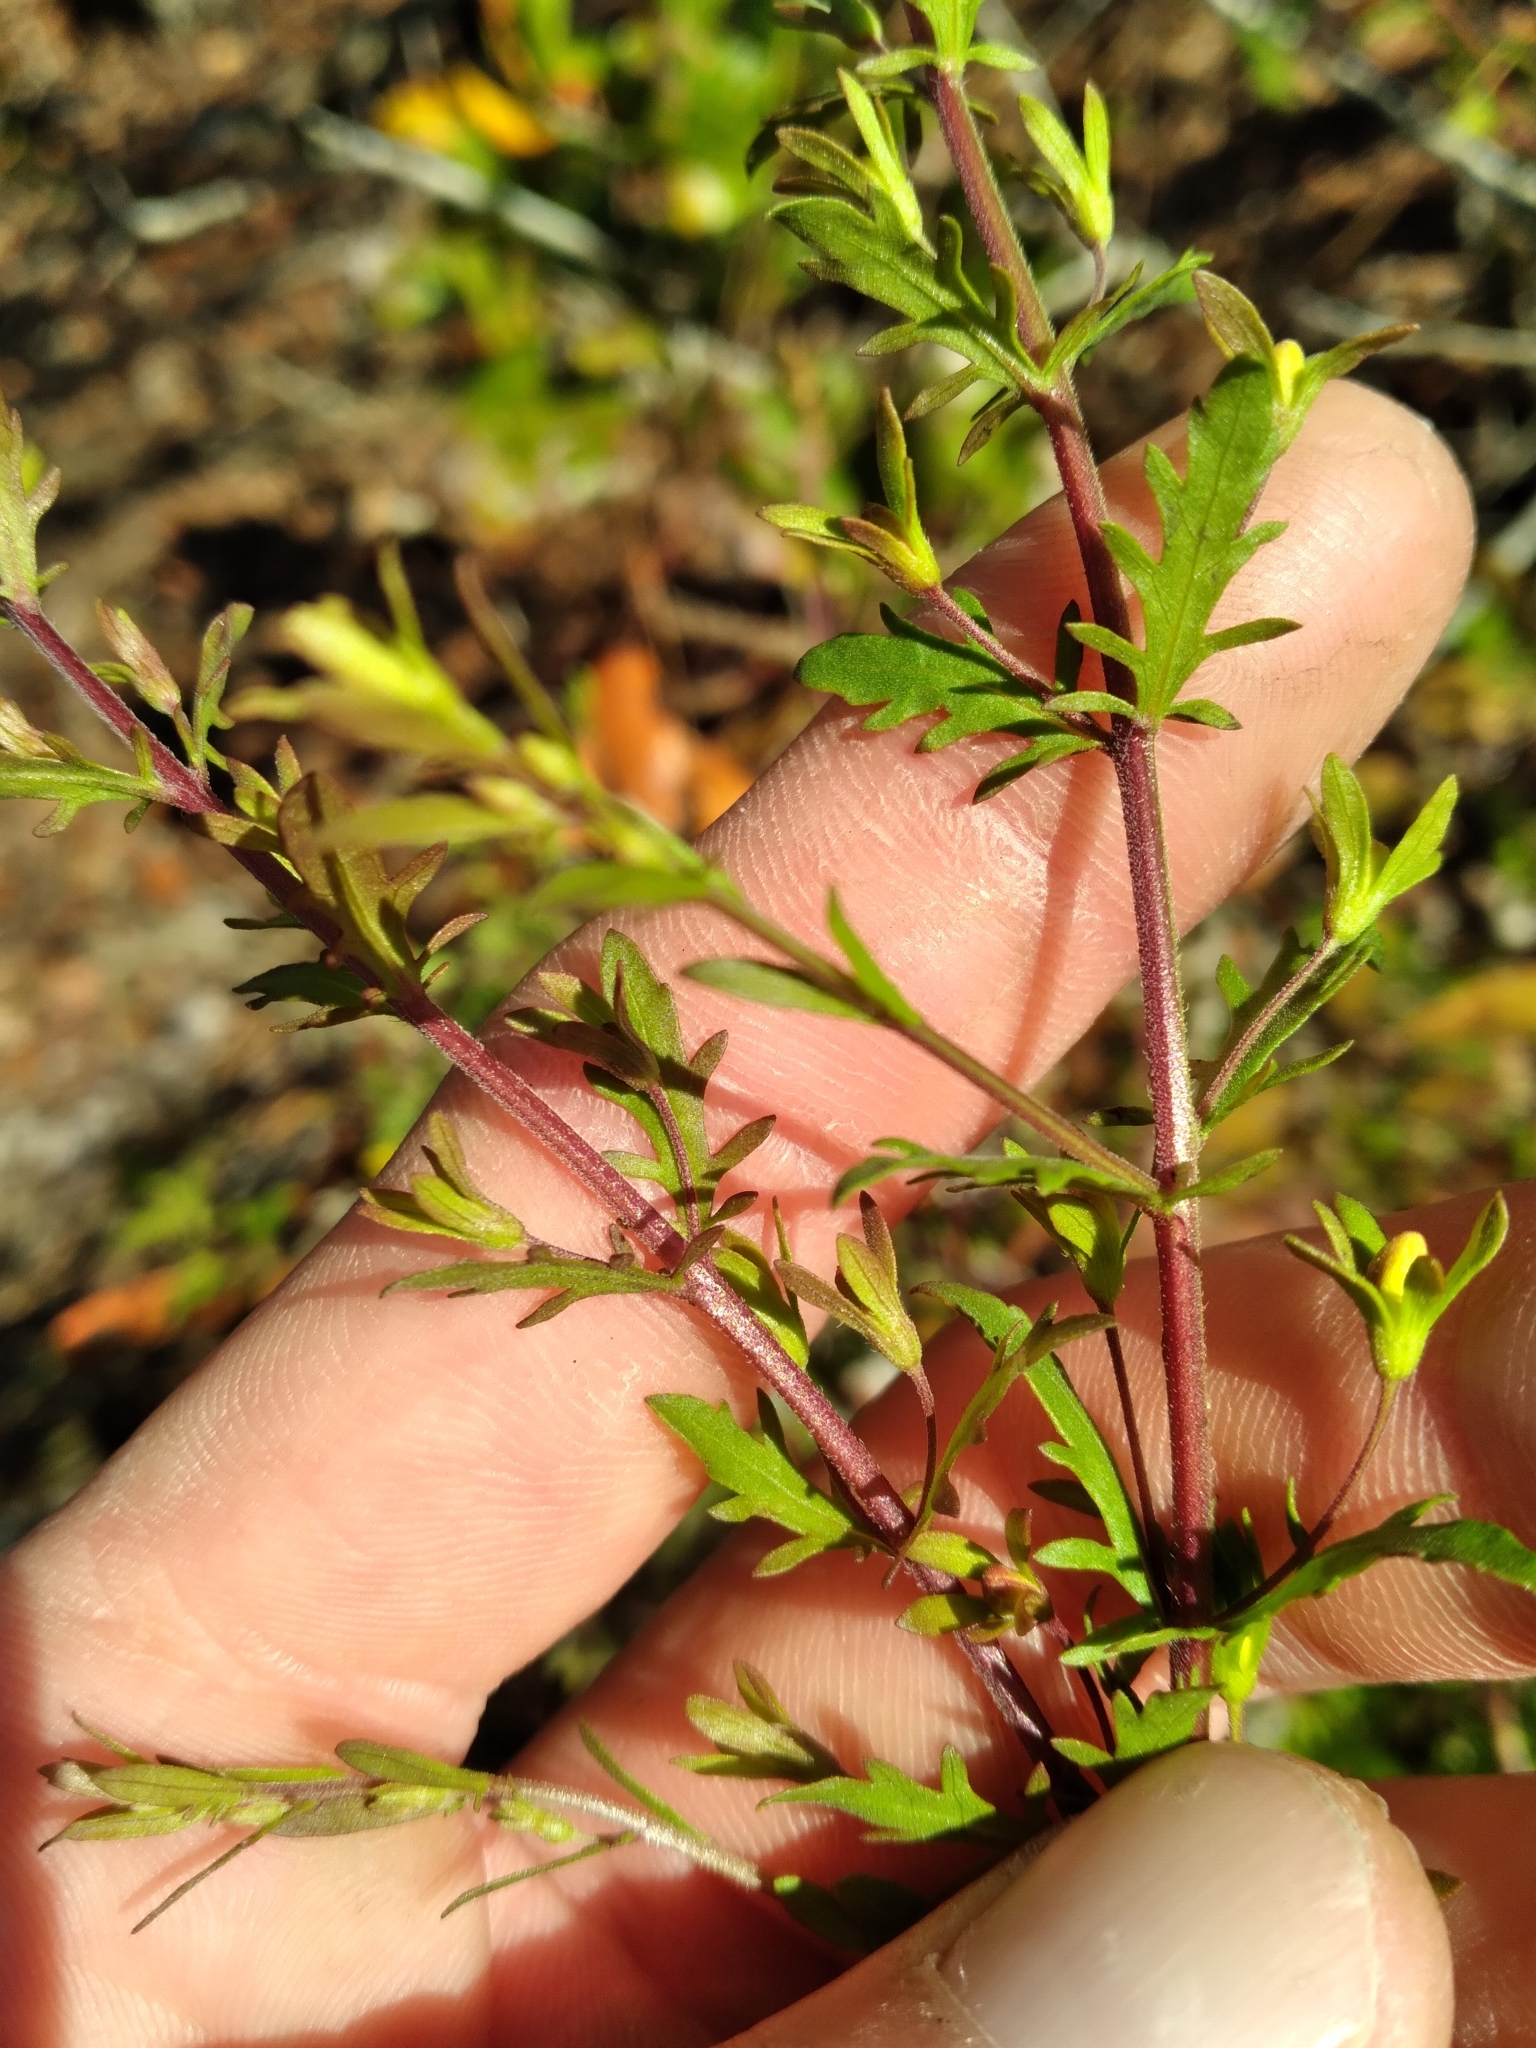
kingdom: Plantae
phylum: Tracheophyta
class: Magnoliopsida
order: Lamiales
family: Orobanchaceae
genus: Seymeria
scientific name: Seymeria pectinata
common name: Piedmont black-senna
